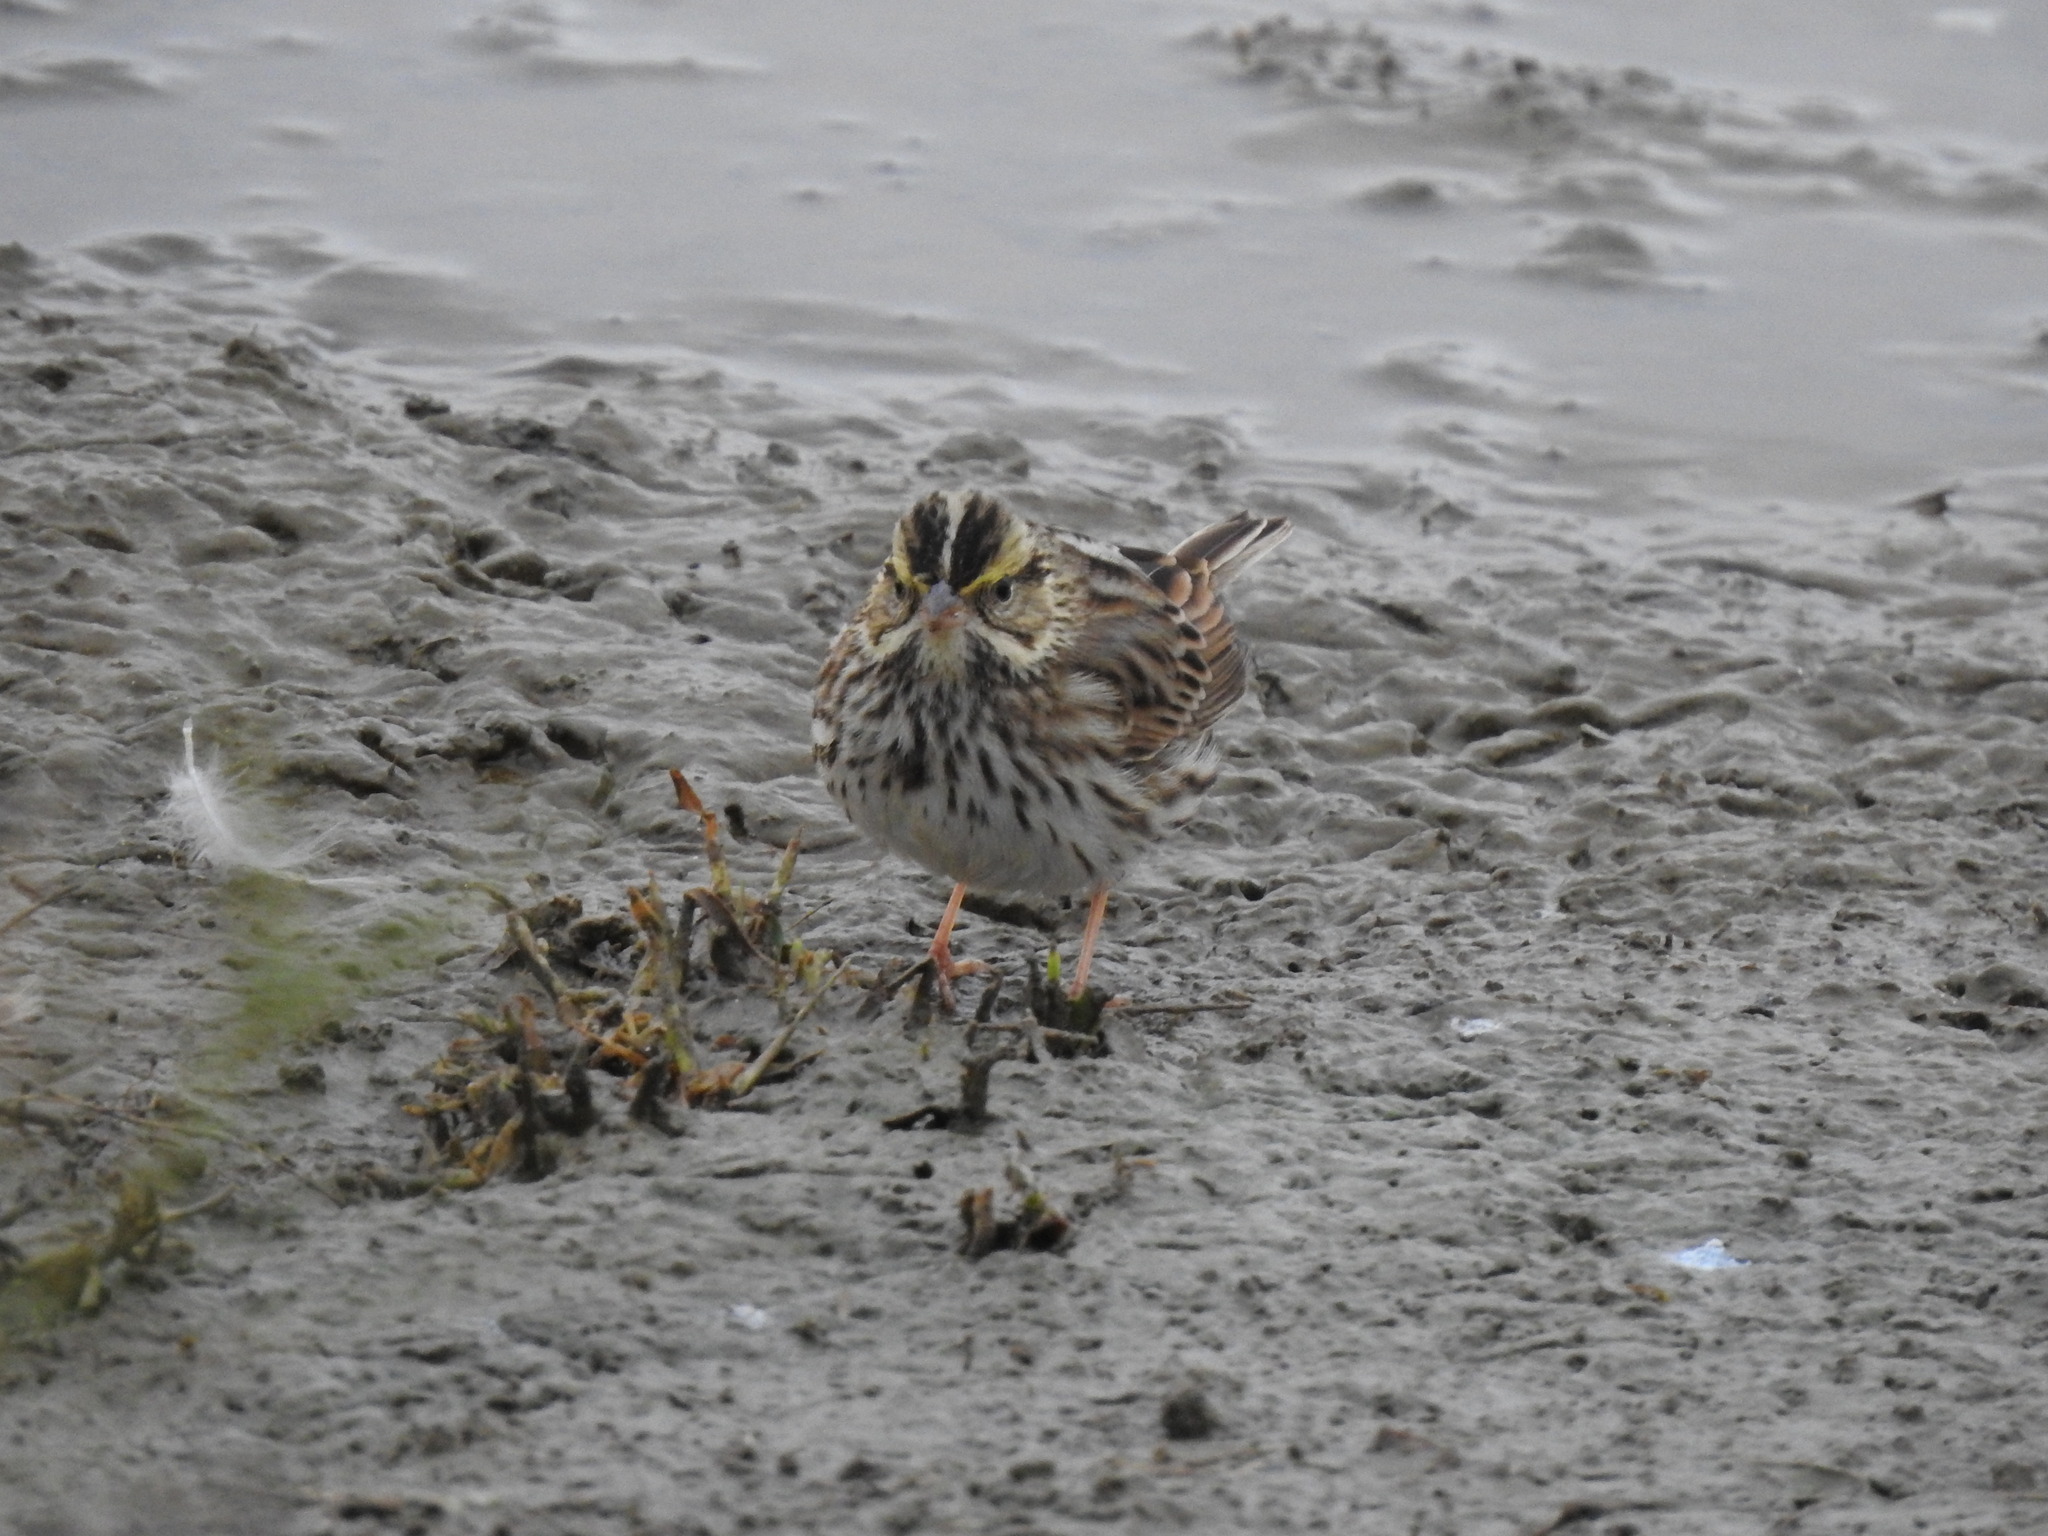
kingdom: Animalia
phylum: Chordata
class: Aves
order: Passeriformes
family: Passerellidae
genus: Passerculus
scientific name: Passerculus sandwichensis
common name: Savannah sparrow
